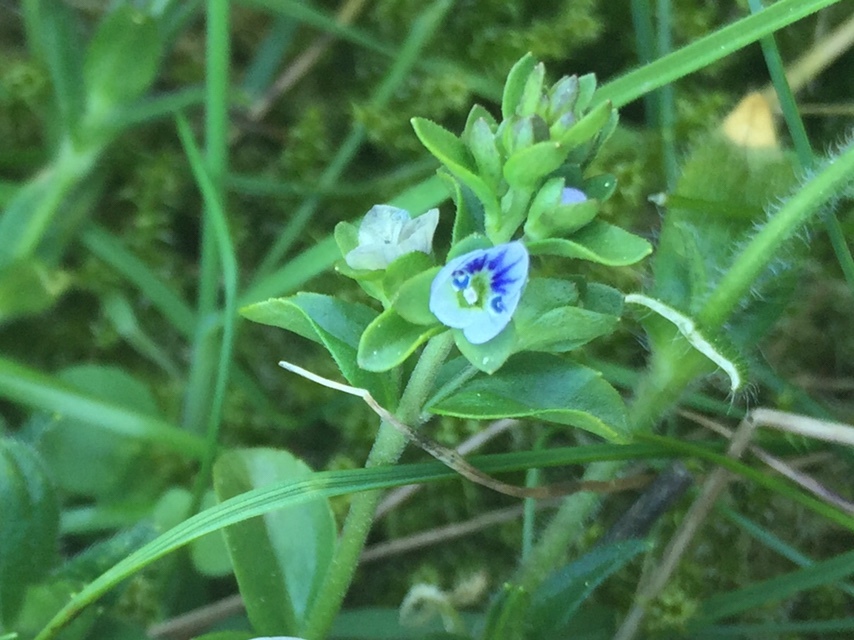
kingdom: Plantae
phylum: Tracheophyta
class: Magnoliopsida
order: Lamiales
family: Plantaginaceae
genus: Veronica
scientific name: Veronica serpyllifolia
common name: Thyme-leaved speedwell
